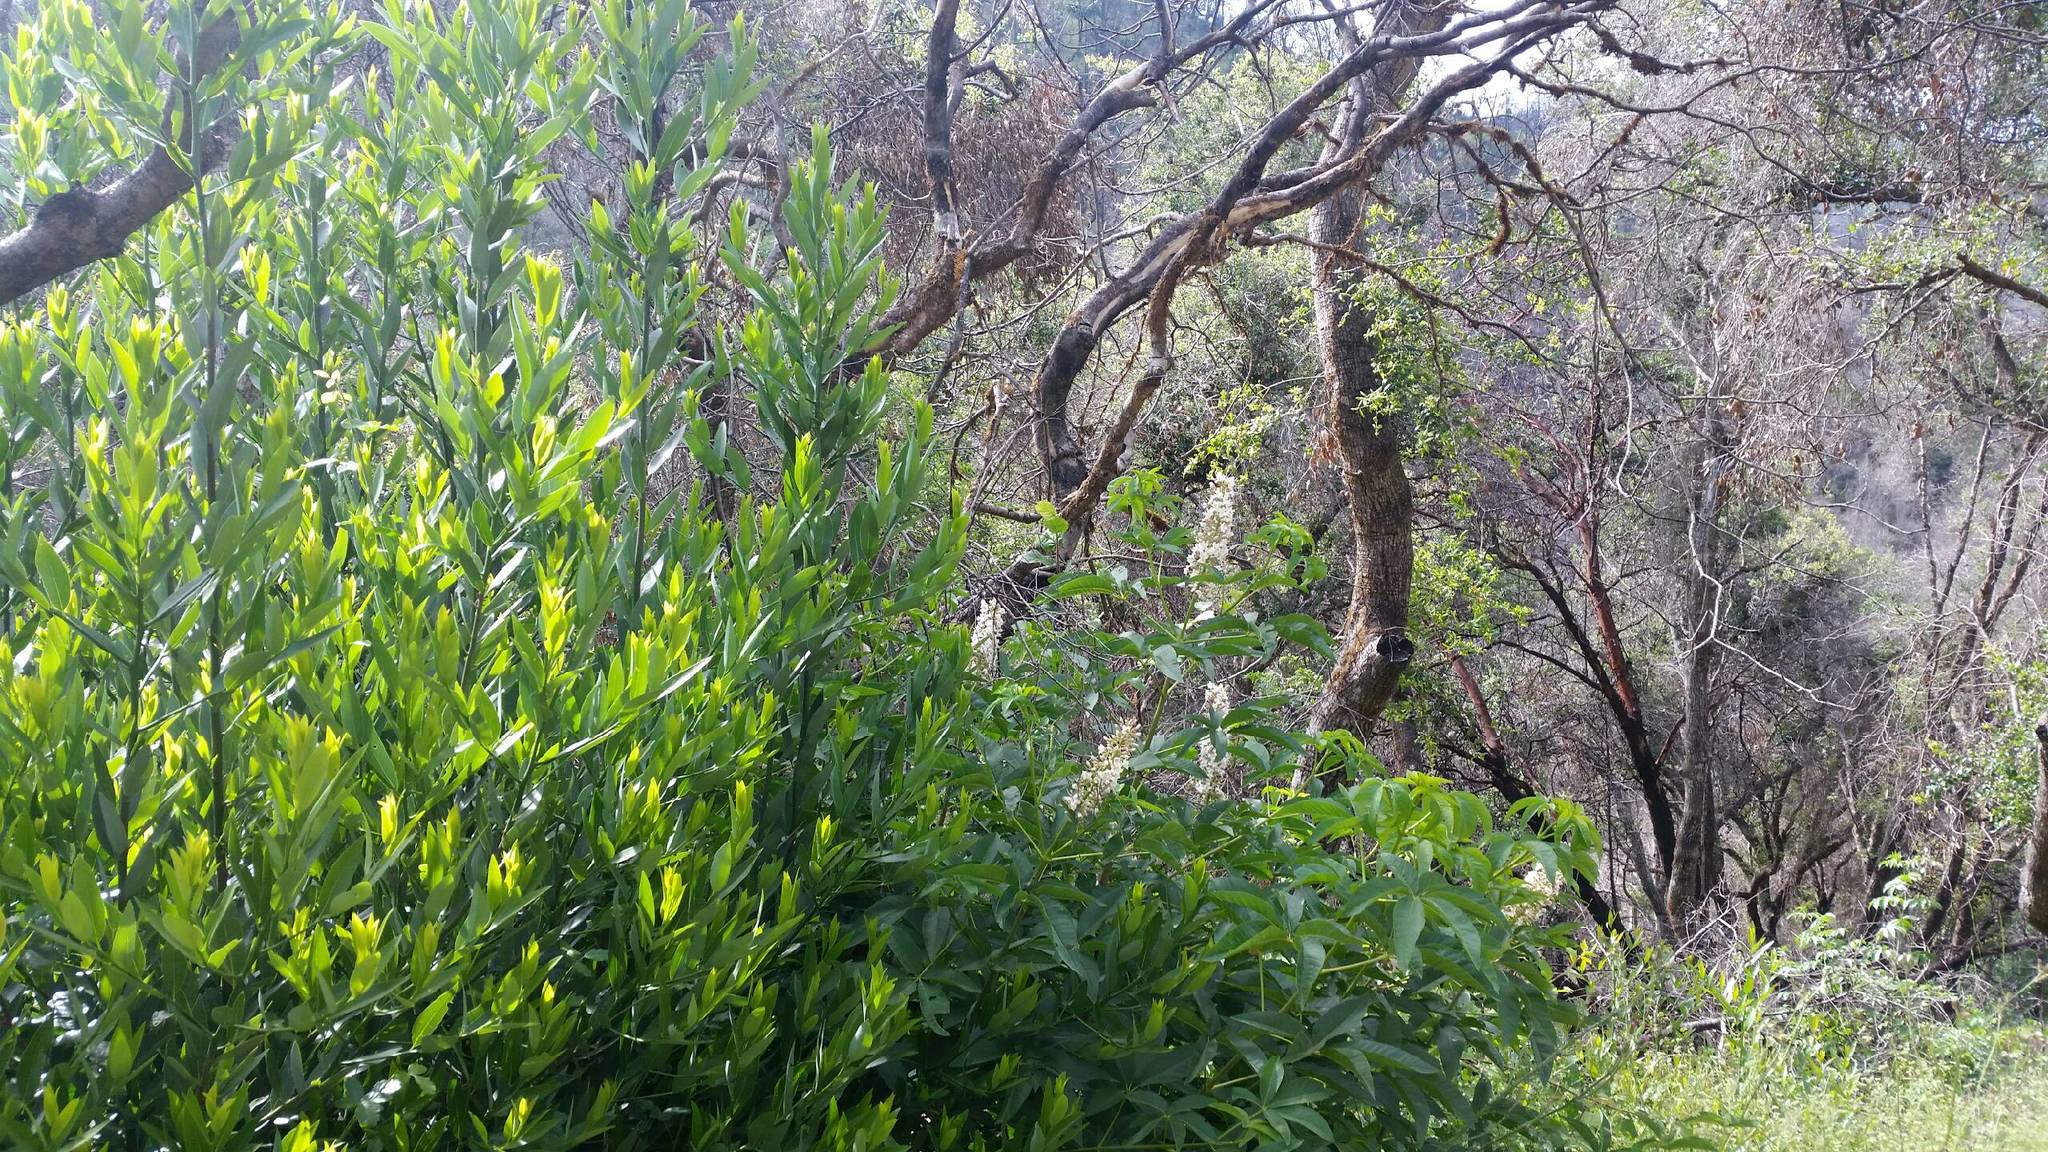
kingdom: Plantae
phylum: Tracheophyta
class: Magnoliopsida
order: Laurales
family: Lauraceae
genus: Umbellularia
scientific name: Umbellularia californica
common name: California bay
